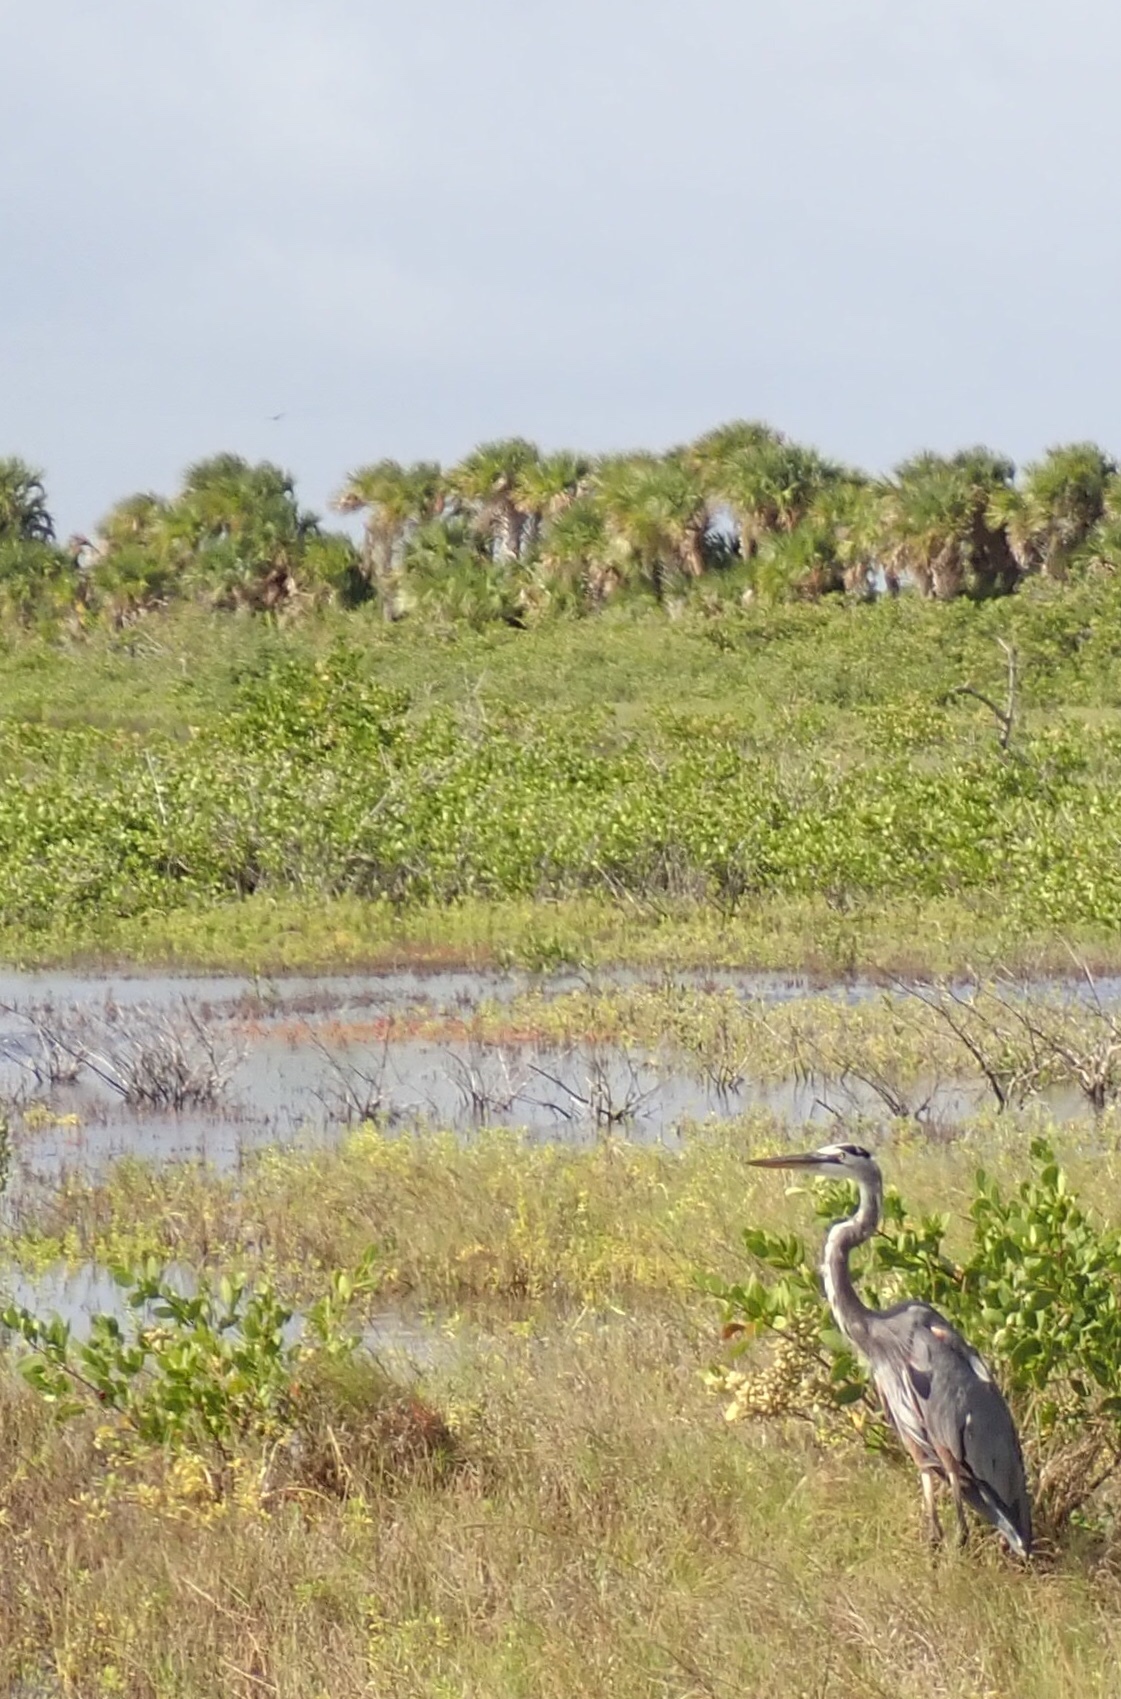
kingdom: Animalia
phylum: Chordata
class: Aves
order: Pelecaniformes
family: Ardeidae
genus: Ardea
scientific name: Ardea herodias
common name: Great blue heron
